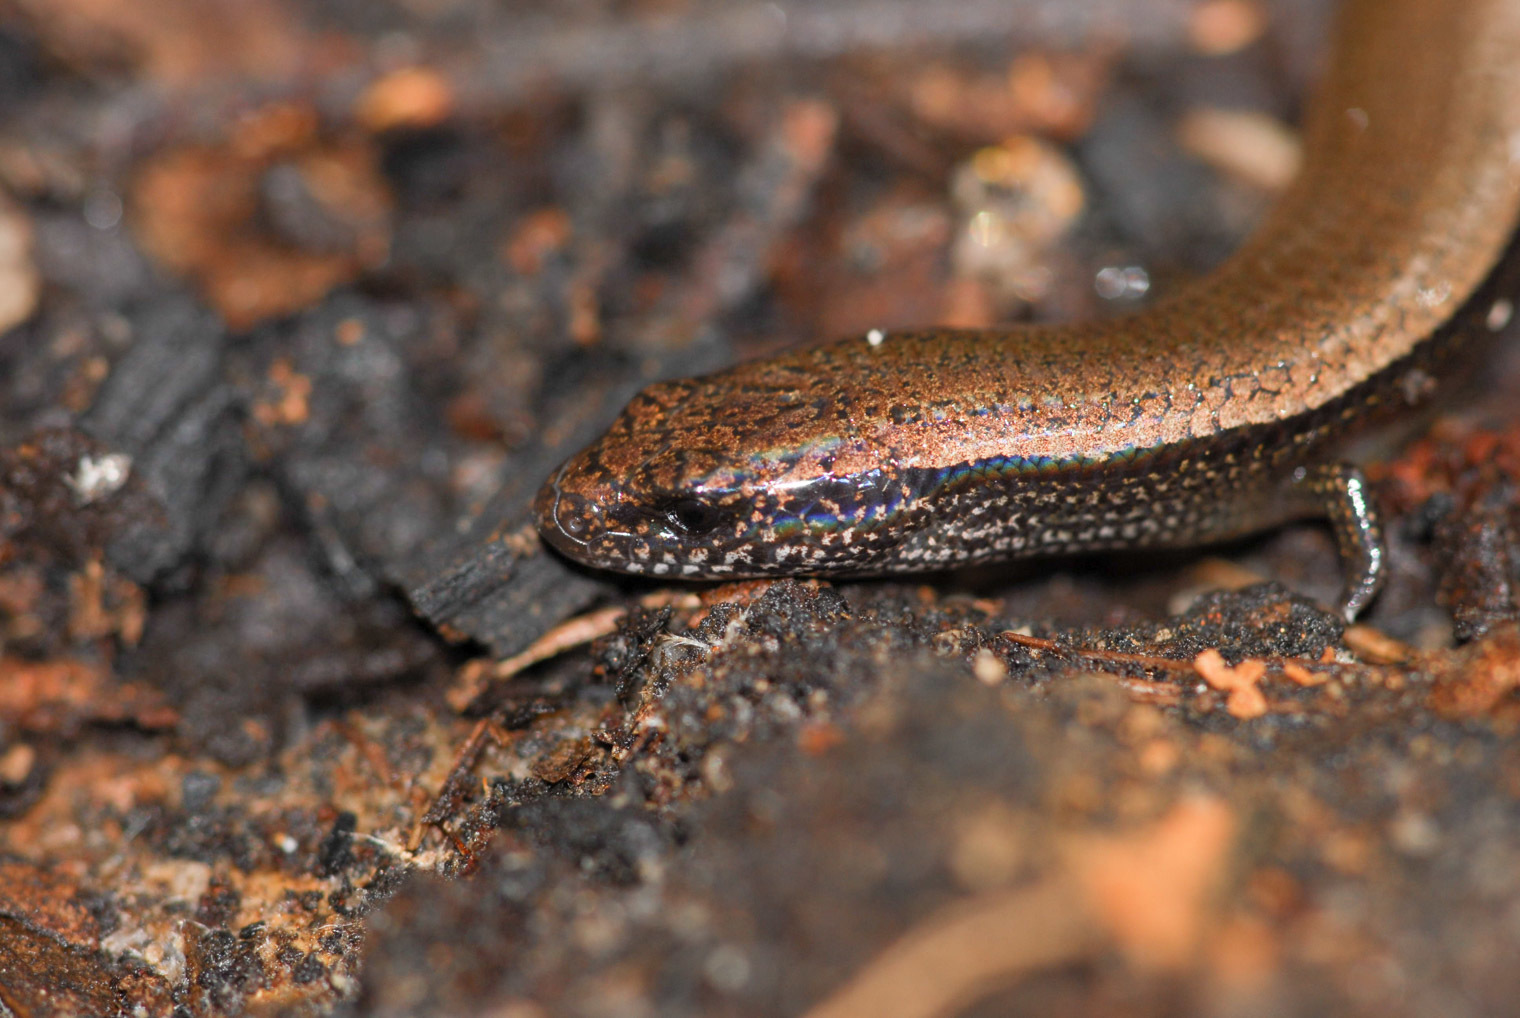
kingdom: Animalia
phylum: Chordata
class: Squamata
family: Scincidae
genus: Saiphos
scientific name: Saiphos equalis
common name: Three-toed skink
